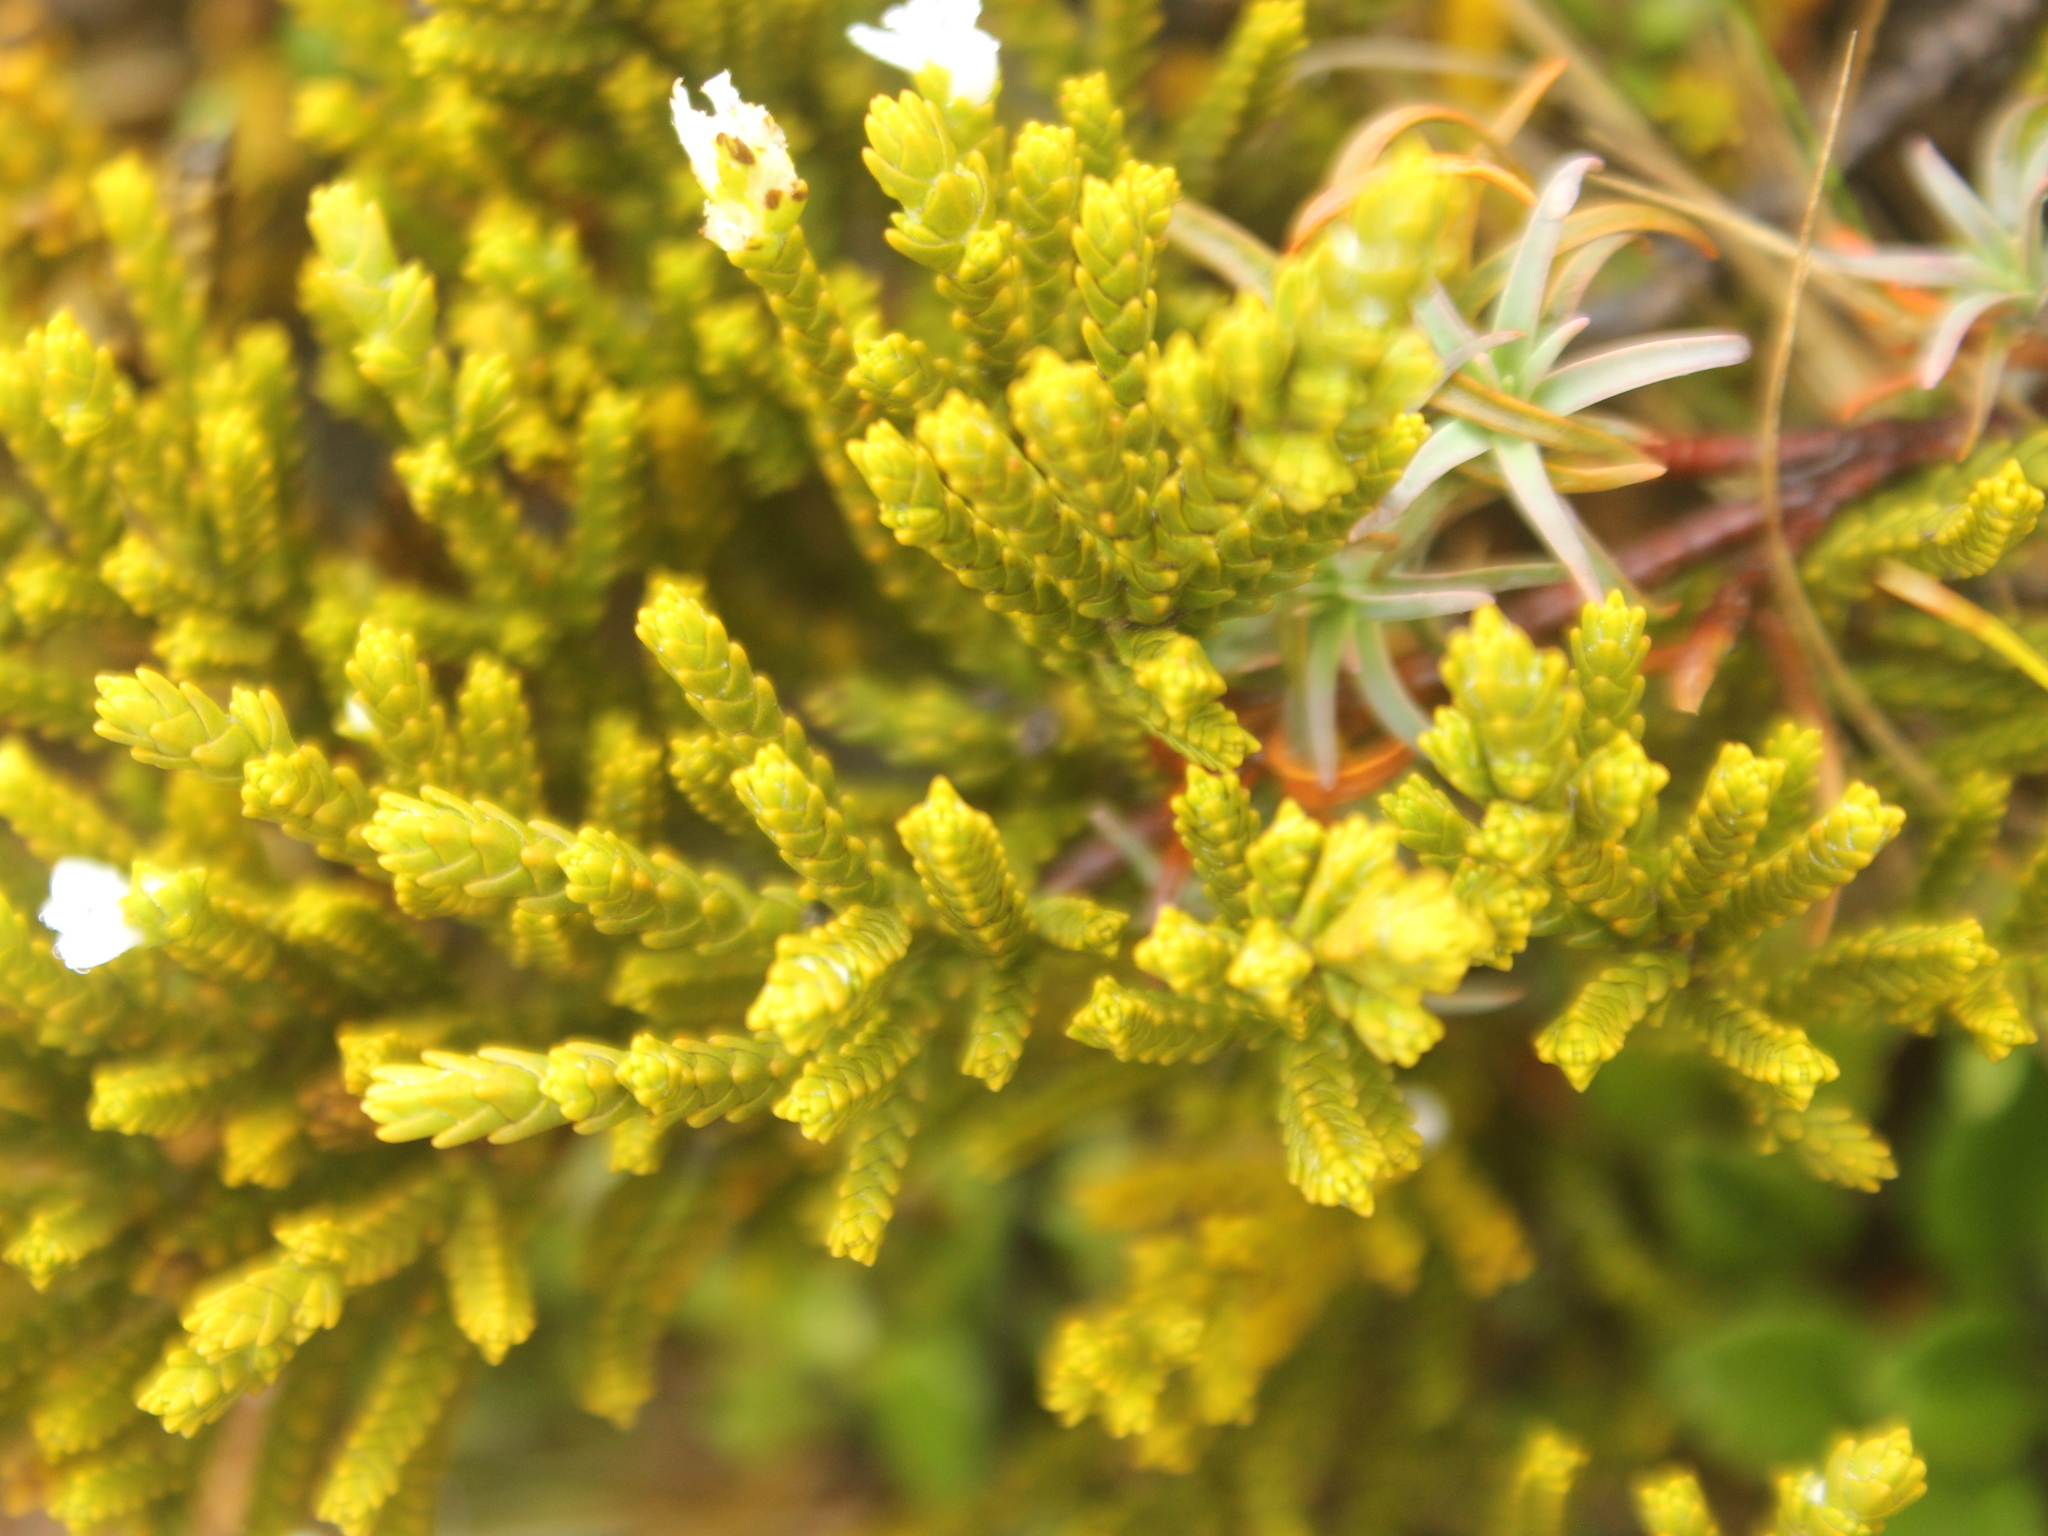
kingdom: Plantae
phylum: Tracheophyta
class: Magnoliopsida
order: Lamiales
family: Plantaginaceae
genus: Veronica
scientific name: Veronica tetragona
